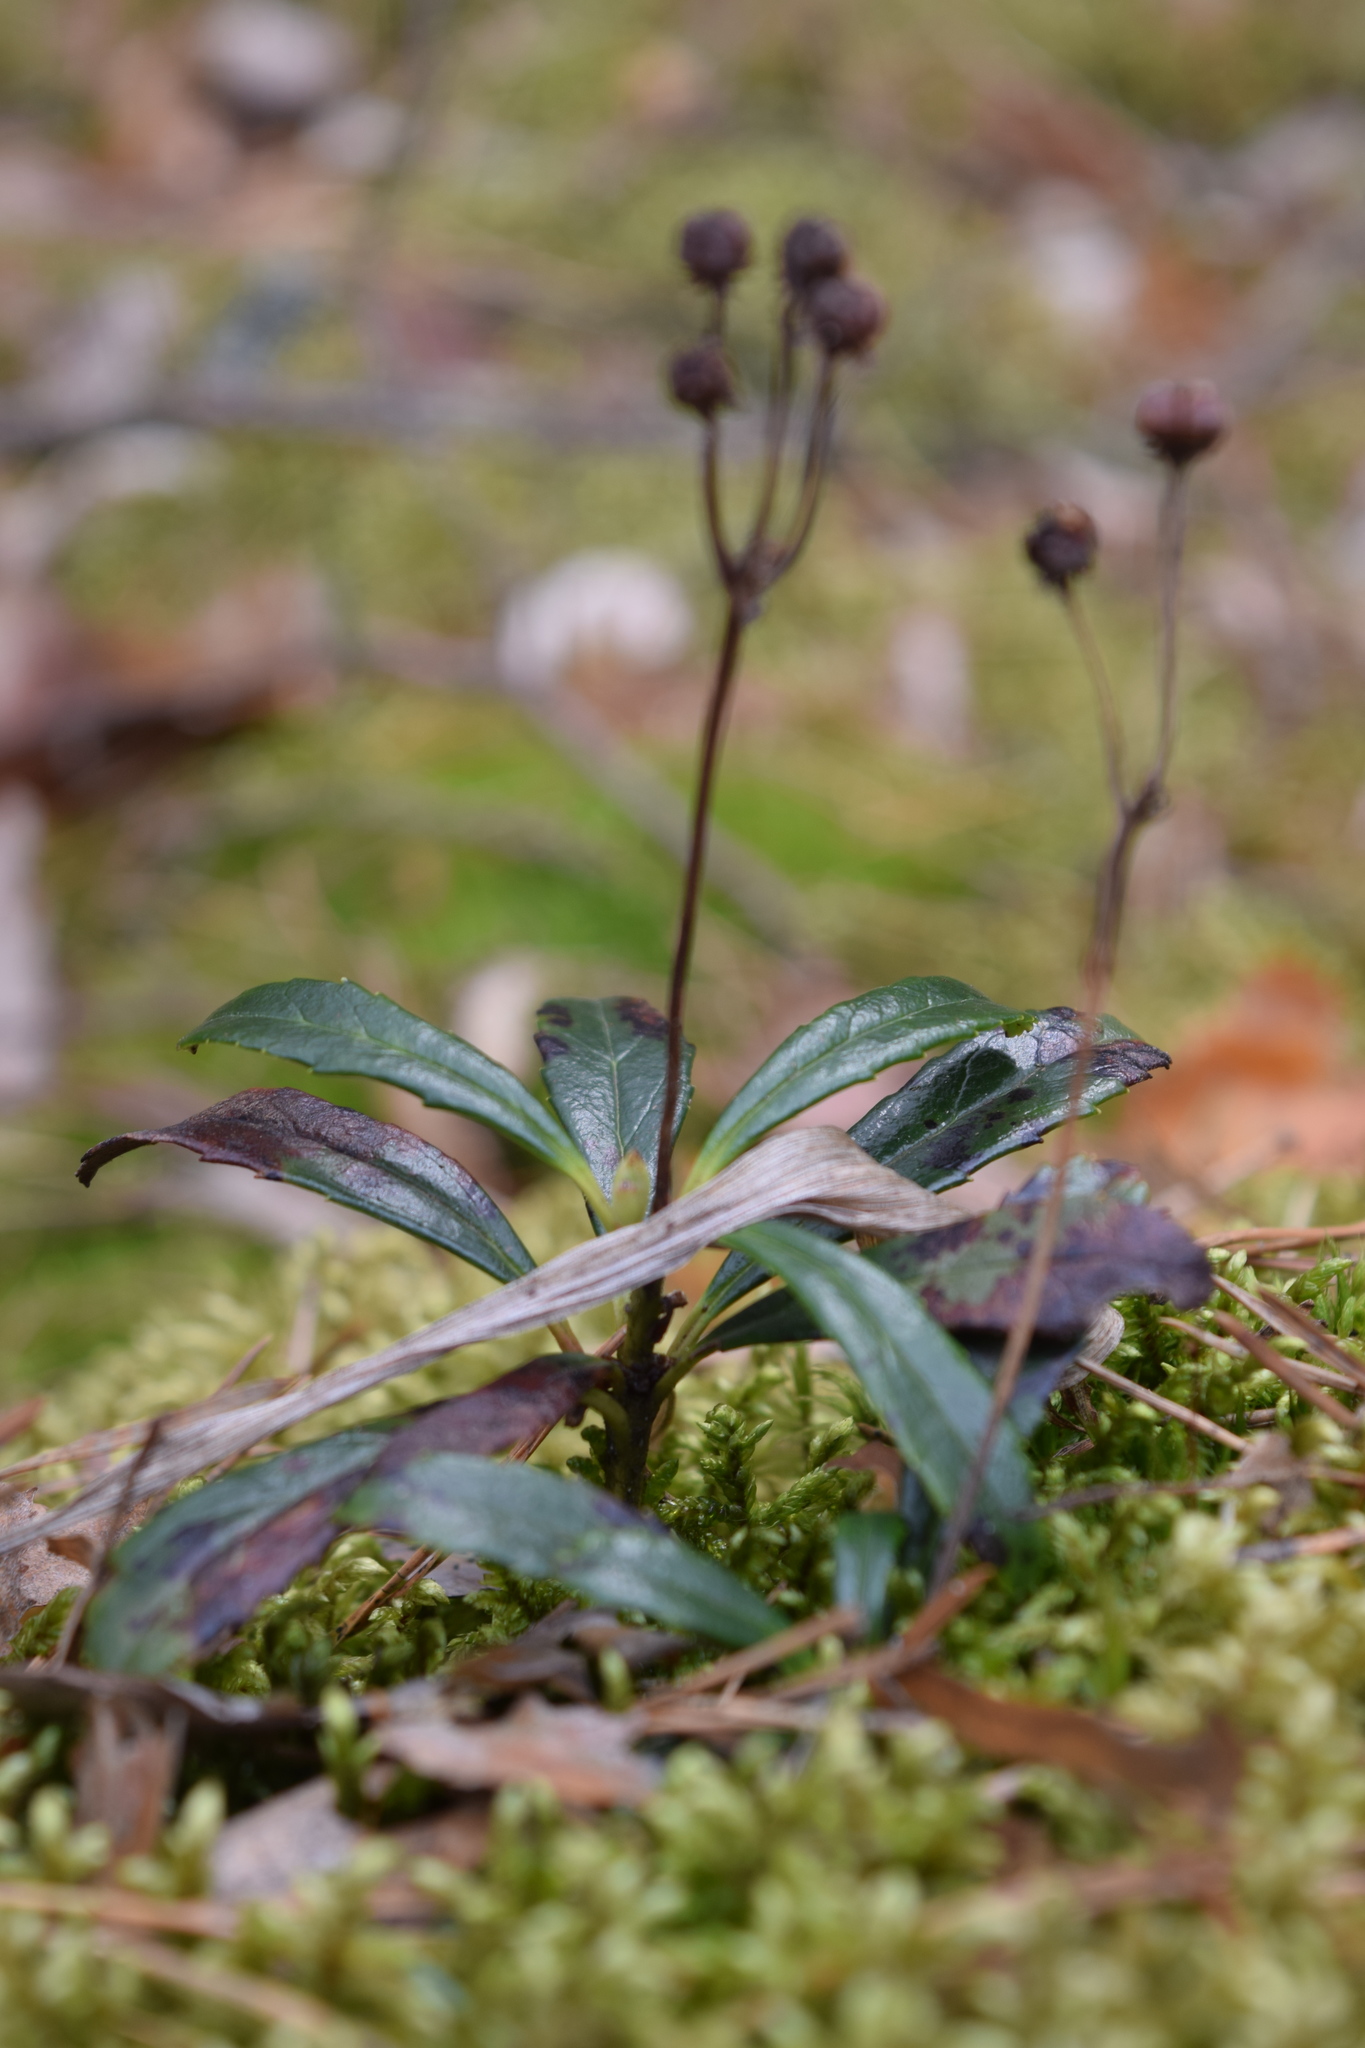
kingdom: Plantae
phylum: Tracheophyta
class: Magnoliopsida
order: Ericales
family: Ericaceae
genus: Chimaphila
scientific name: Chimaphila umbellata
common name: Pipsissewa
